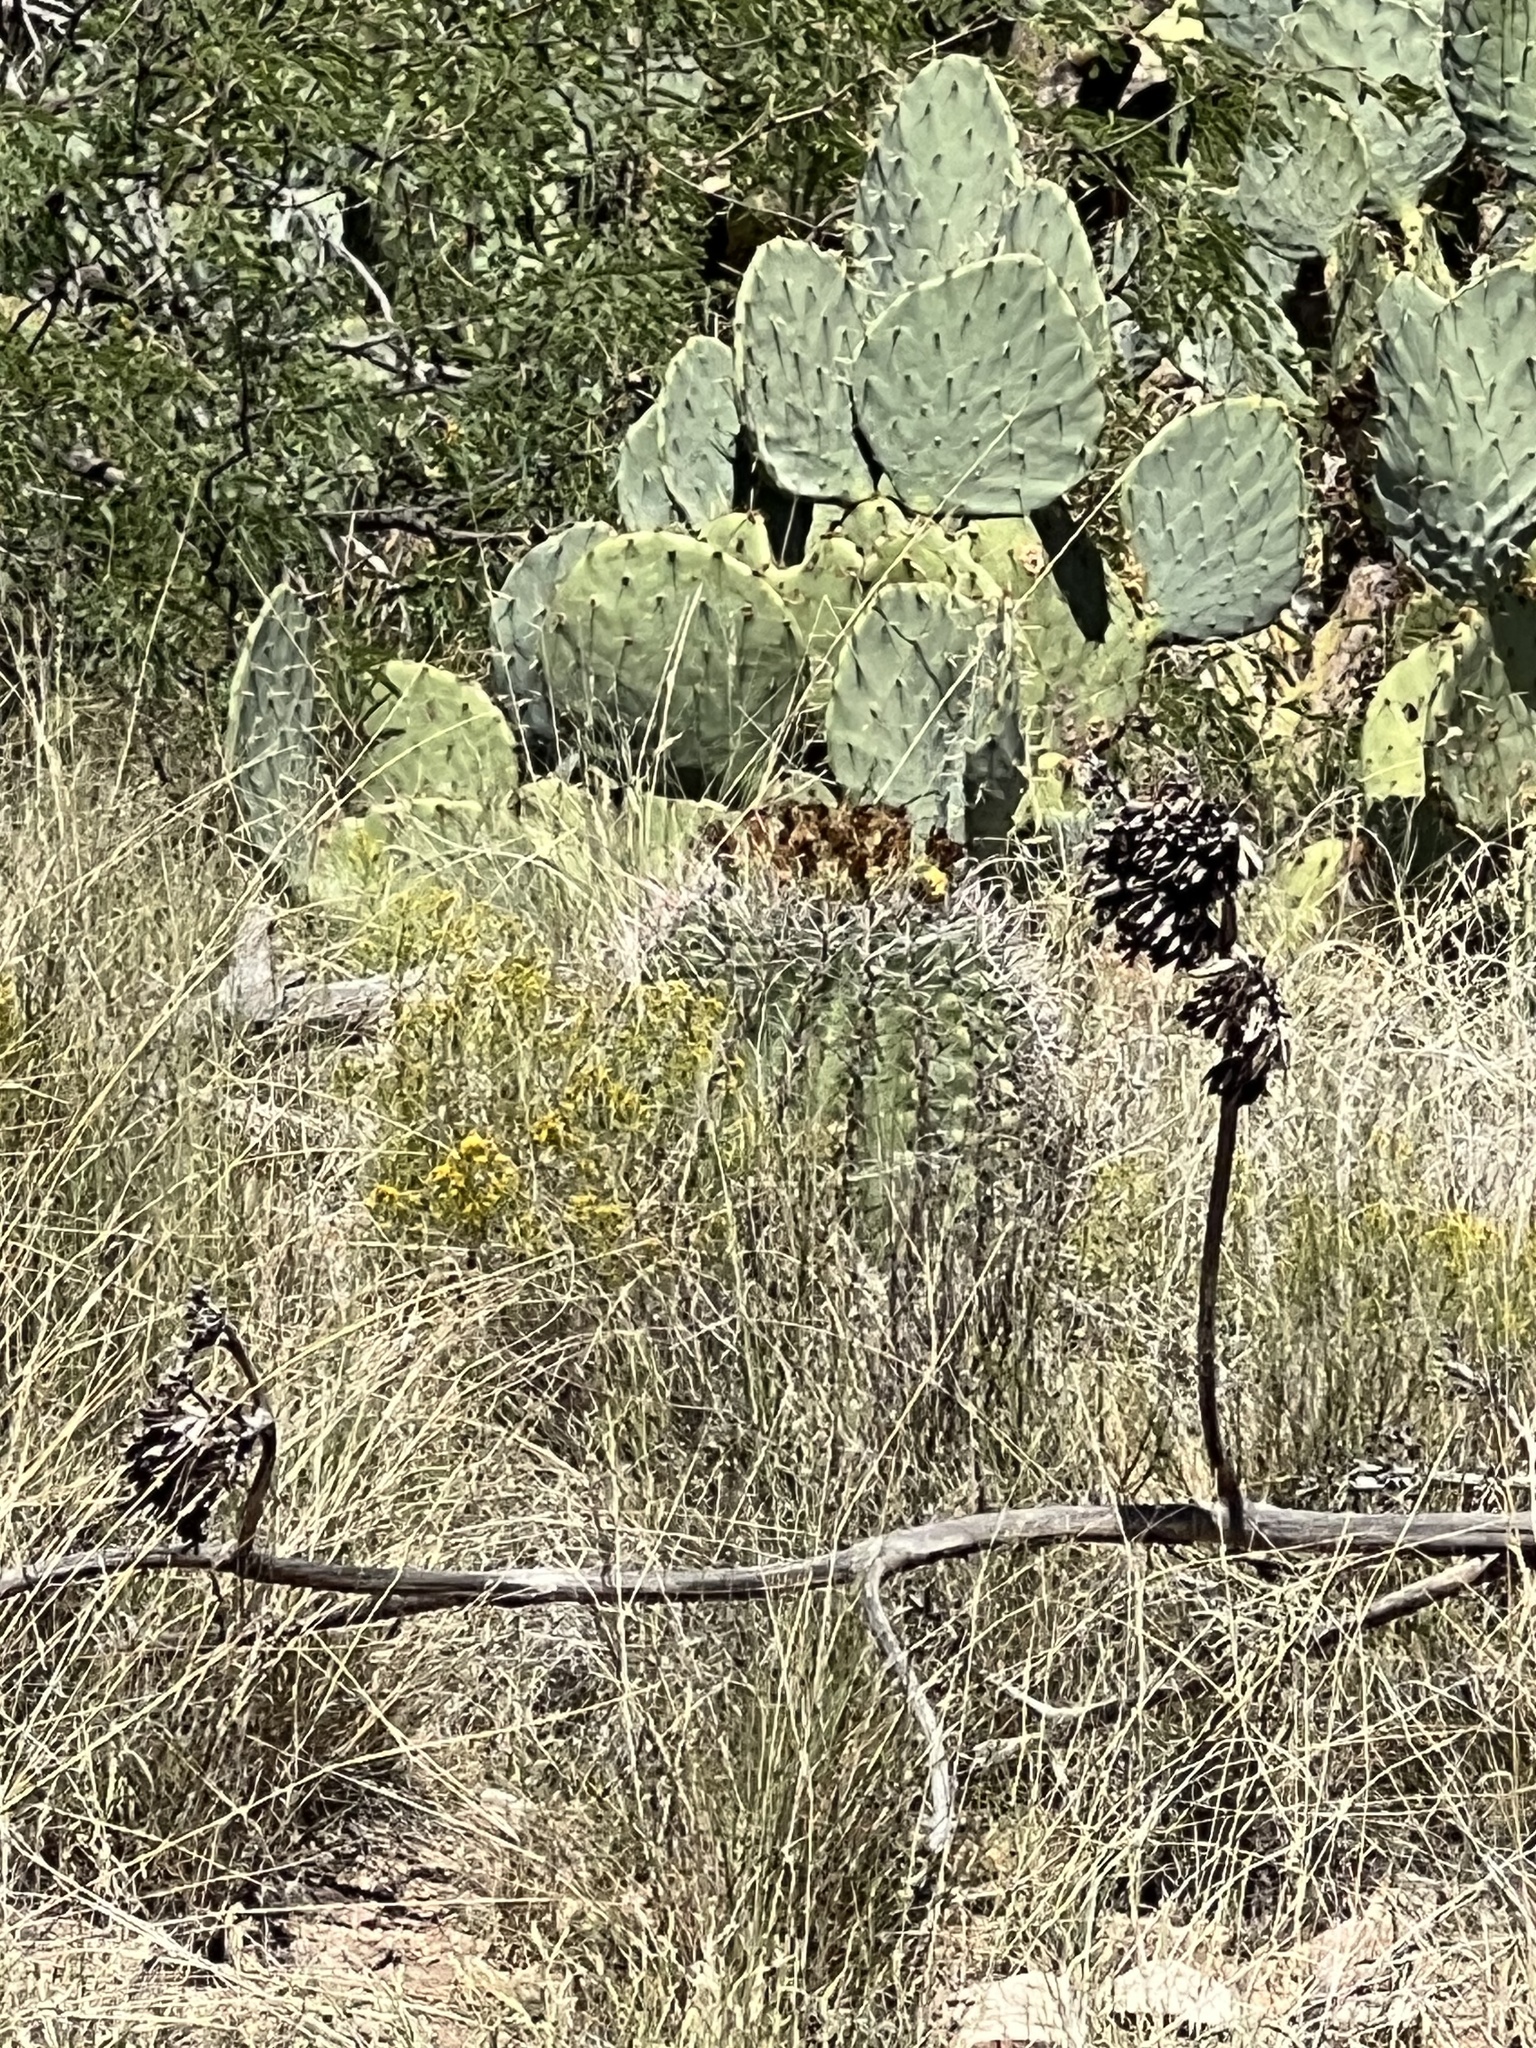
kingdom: Plantae
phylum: Tracheophyta
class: Magnoliopsida
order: Caryophyllales
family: Cactaceae
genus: Ferocactus
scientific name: Ferocactus wislizeni
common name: Candy barrel cactus
